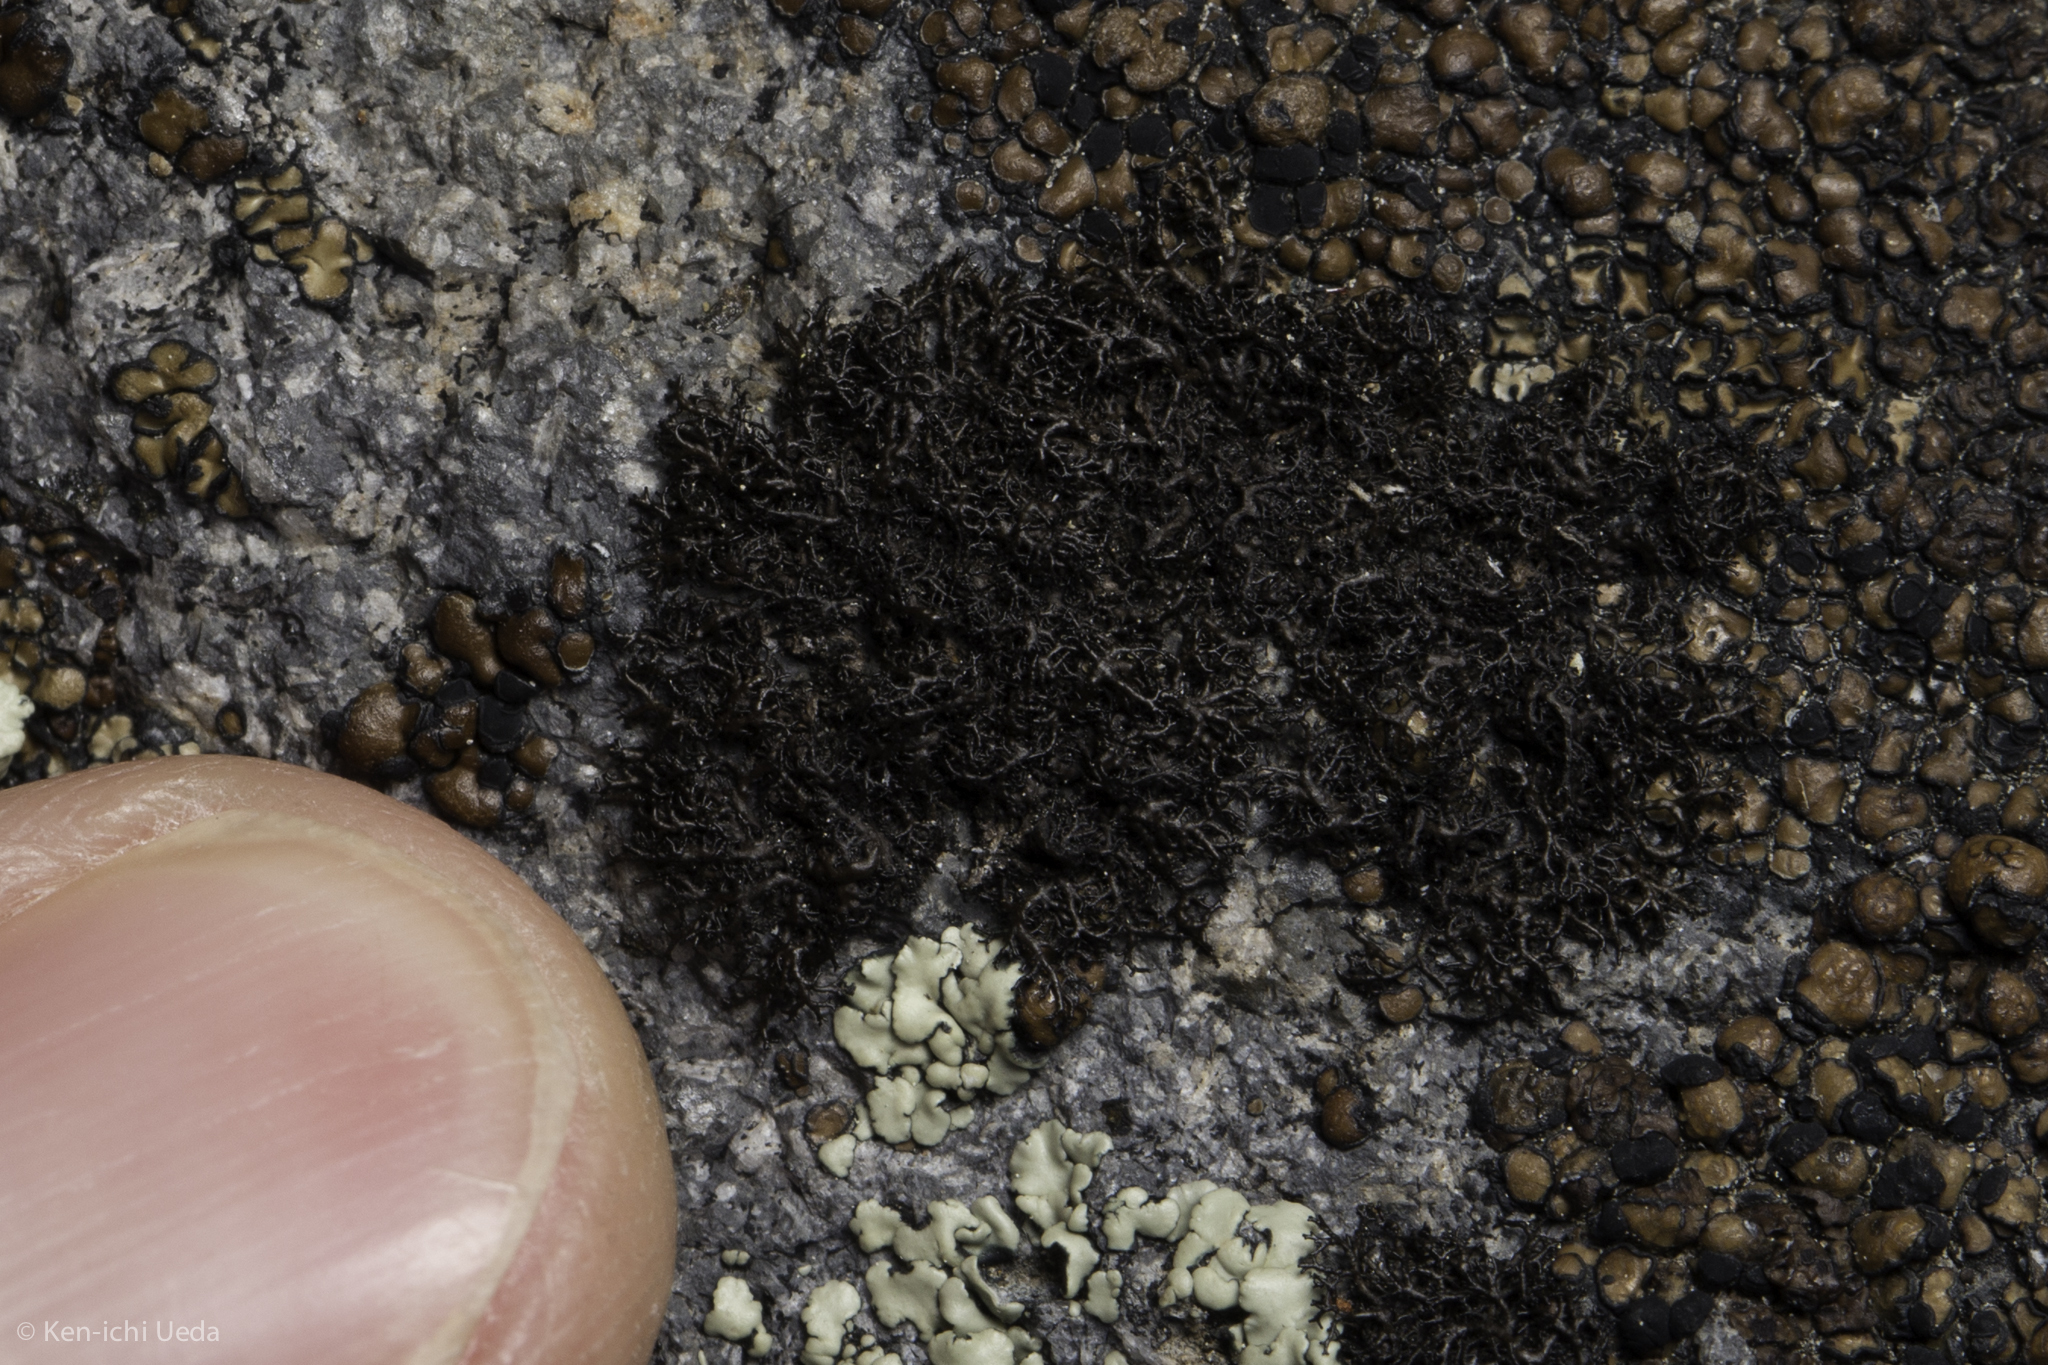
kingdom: Fungi
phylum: Ascomycota
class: Lecanoromycetes
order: Lecanorales
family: Parmeliaceae
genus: Pseudephebe
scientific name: Pseudephebe minuscula
